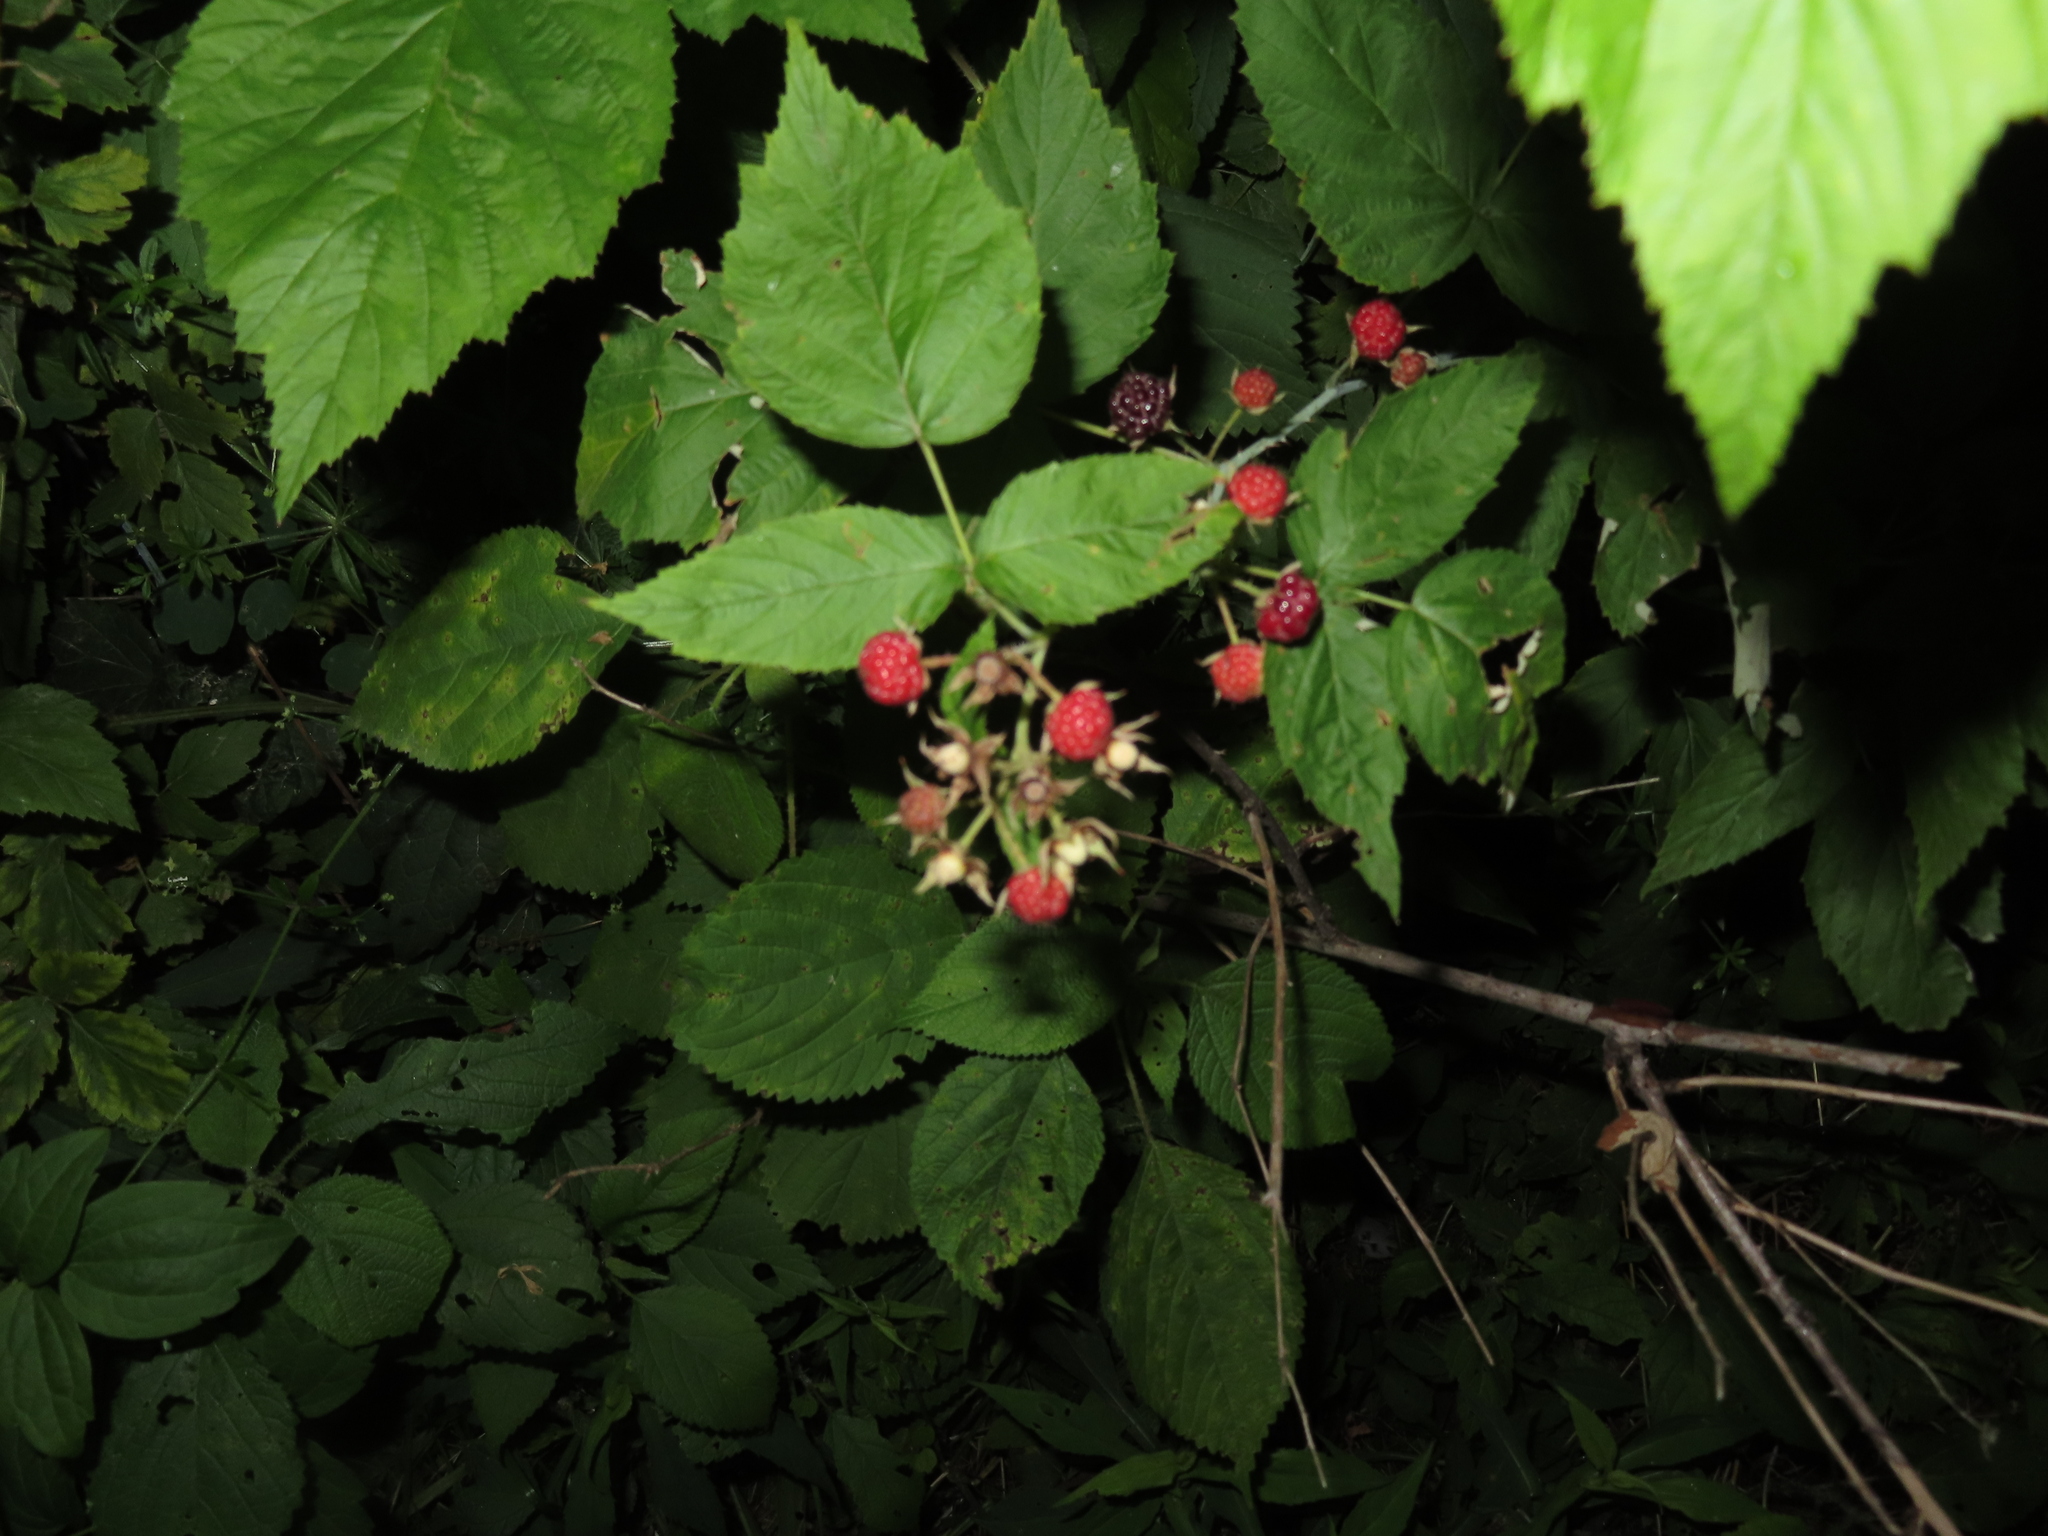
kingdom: Plantae
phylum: Tracheophyta
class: Magnoliopsida
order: Rosales
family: Rosaceae
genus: Rubus
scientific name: Rubus occidentalis
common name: Black raspberry
